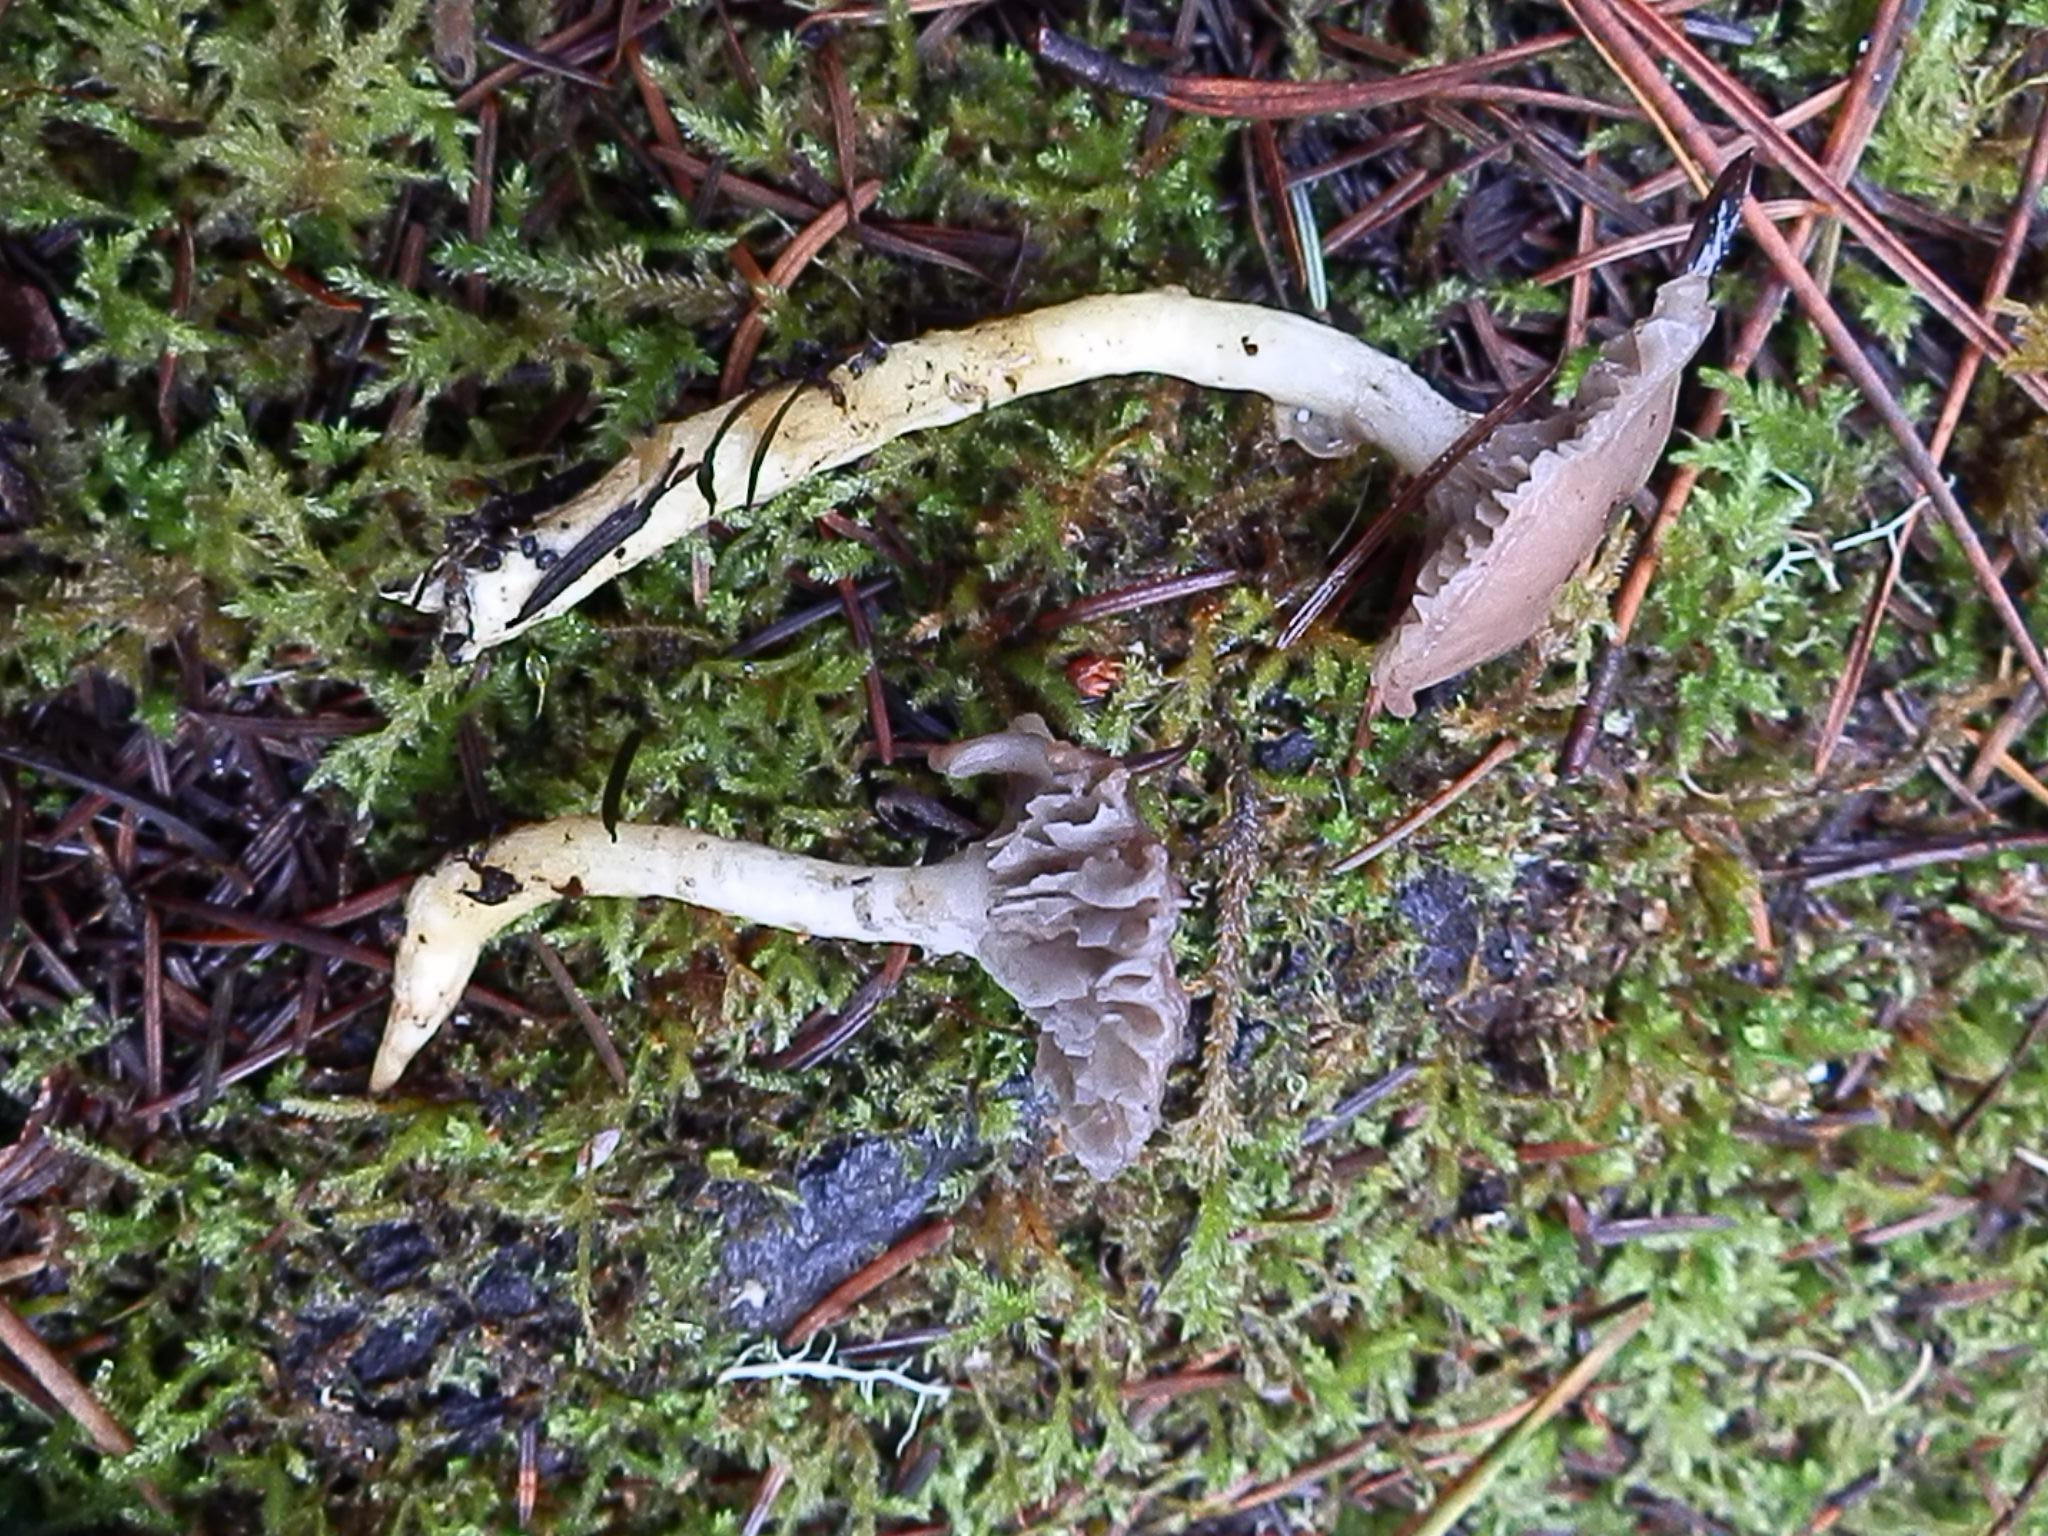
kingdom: Fungi
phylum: Basidiomycota
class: Agaricomycetes
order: Boletales
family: Gomphidiaceae
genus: Gomphidius
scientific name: Gomphidius oregonensis
